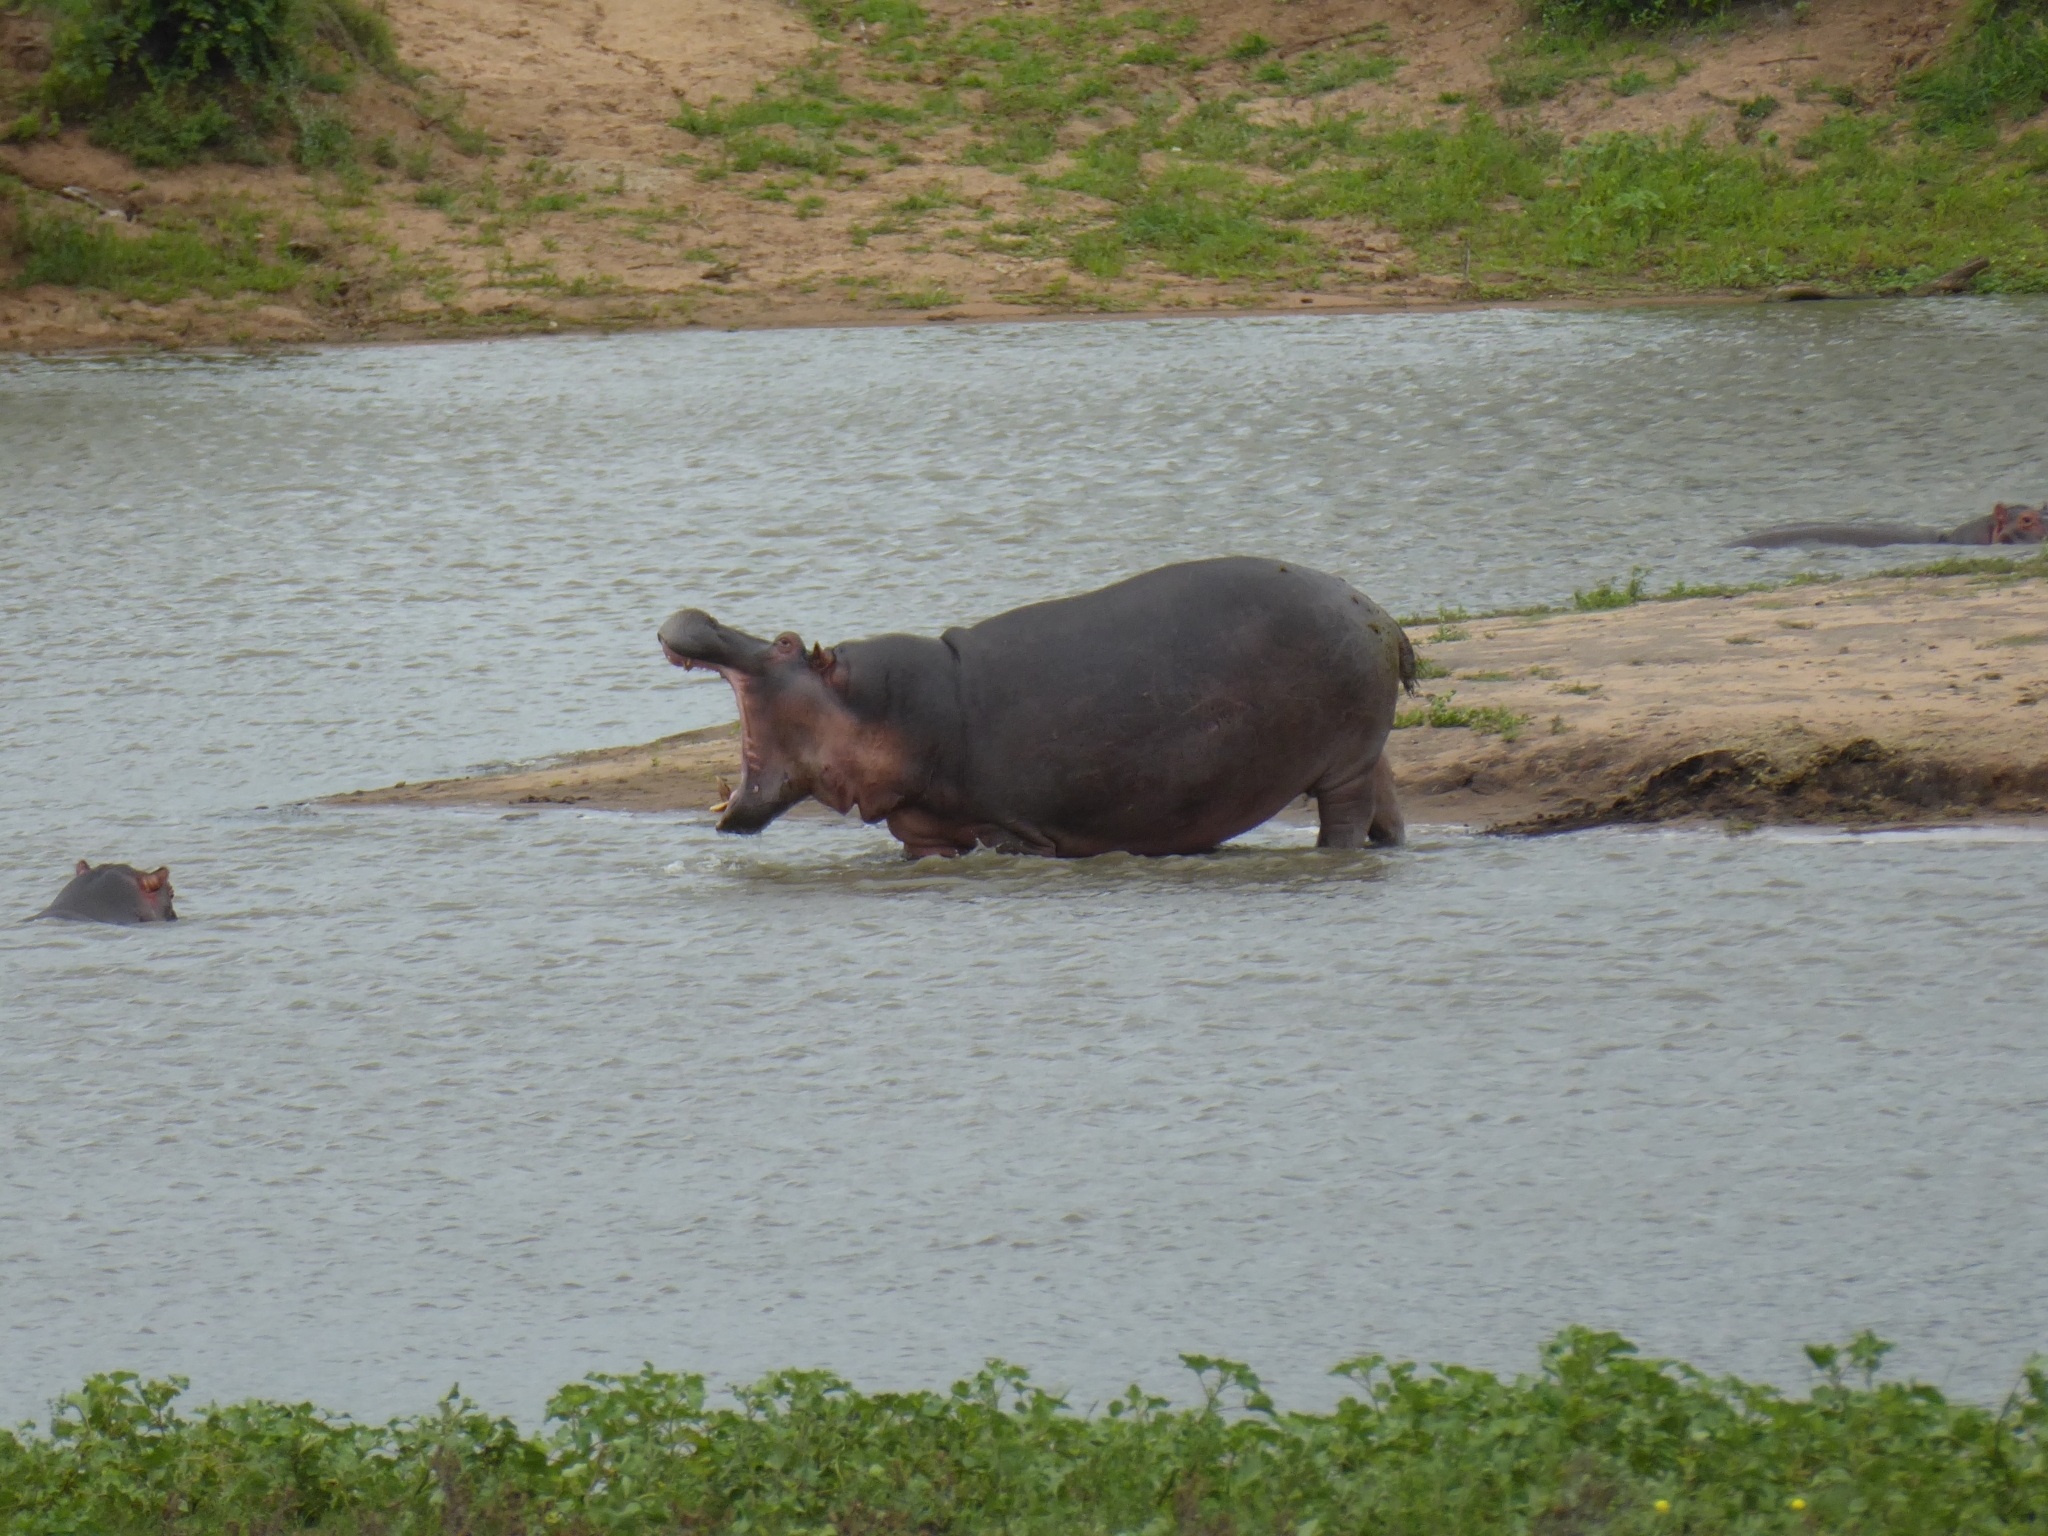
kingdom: Animalia
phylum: Chordata
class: Mammalia
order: Artiodactyla
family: Hippopotamidae
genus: Hippopotamus
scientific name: Hippopotamus amphibius
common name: Common hippopotamus
